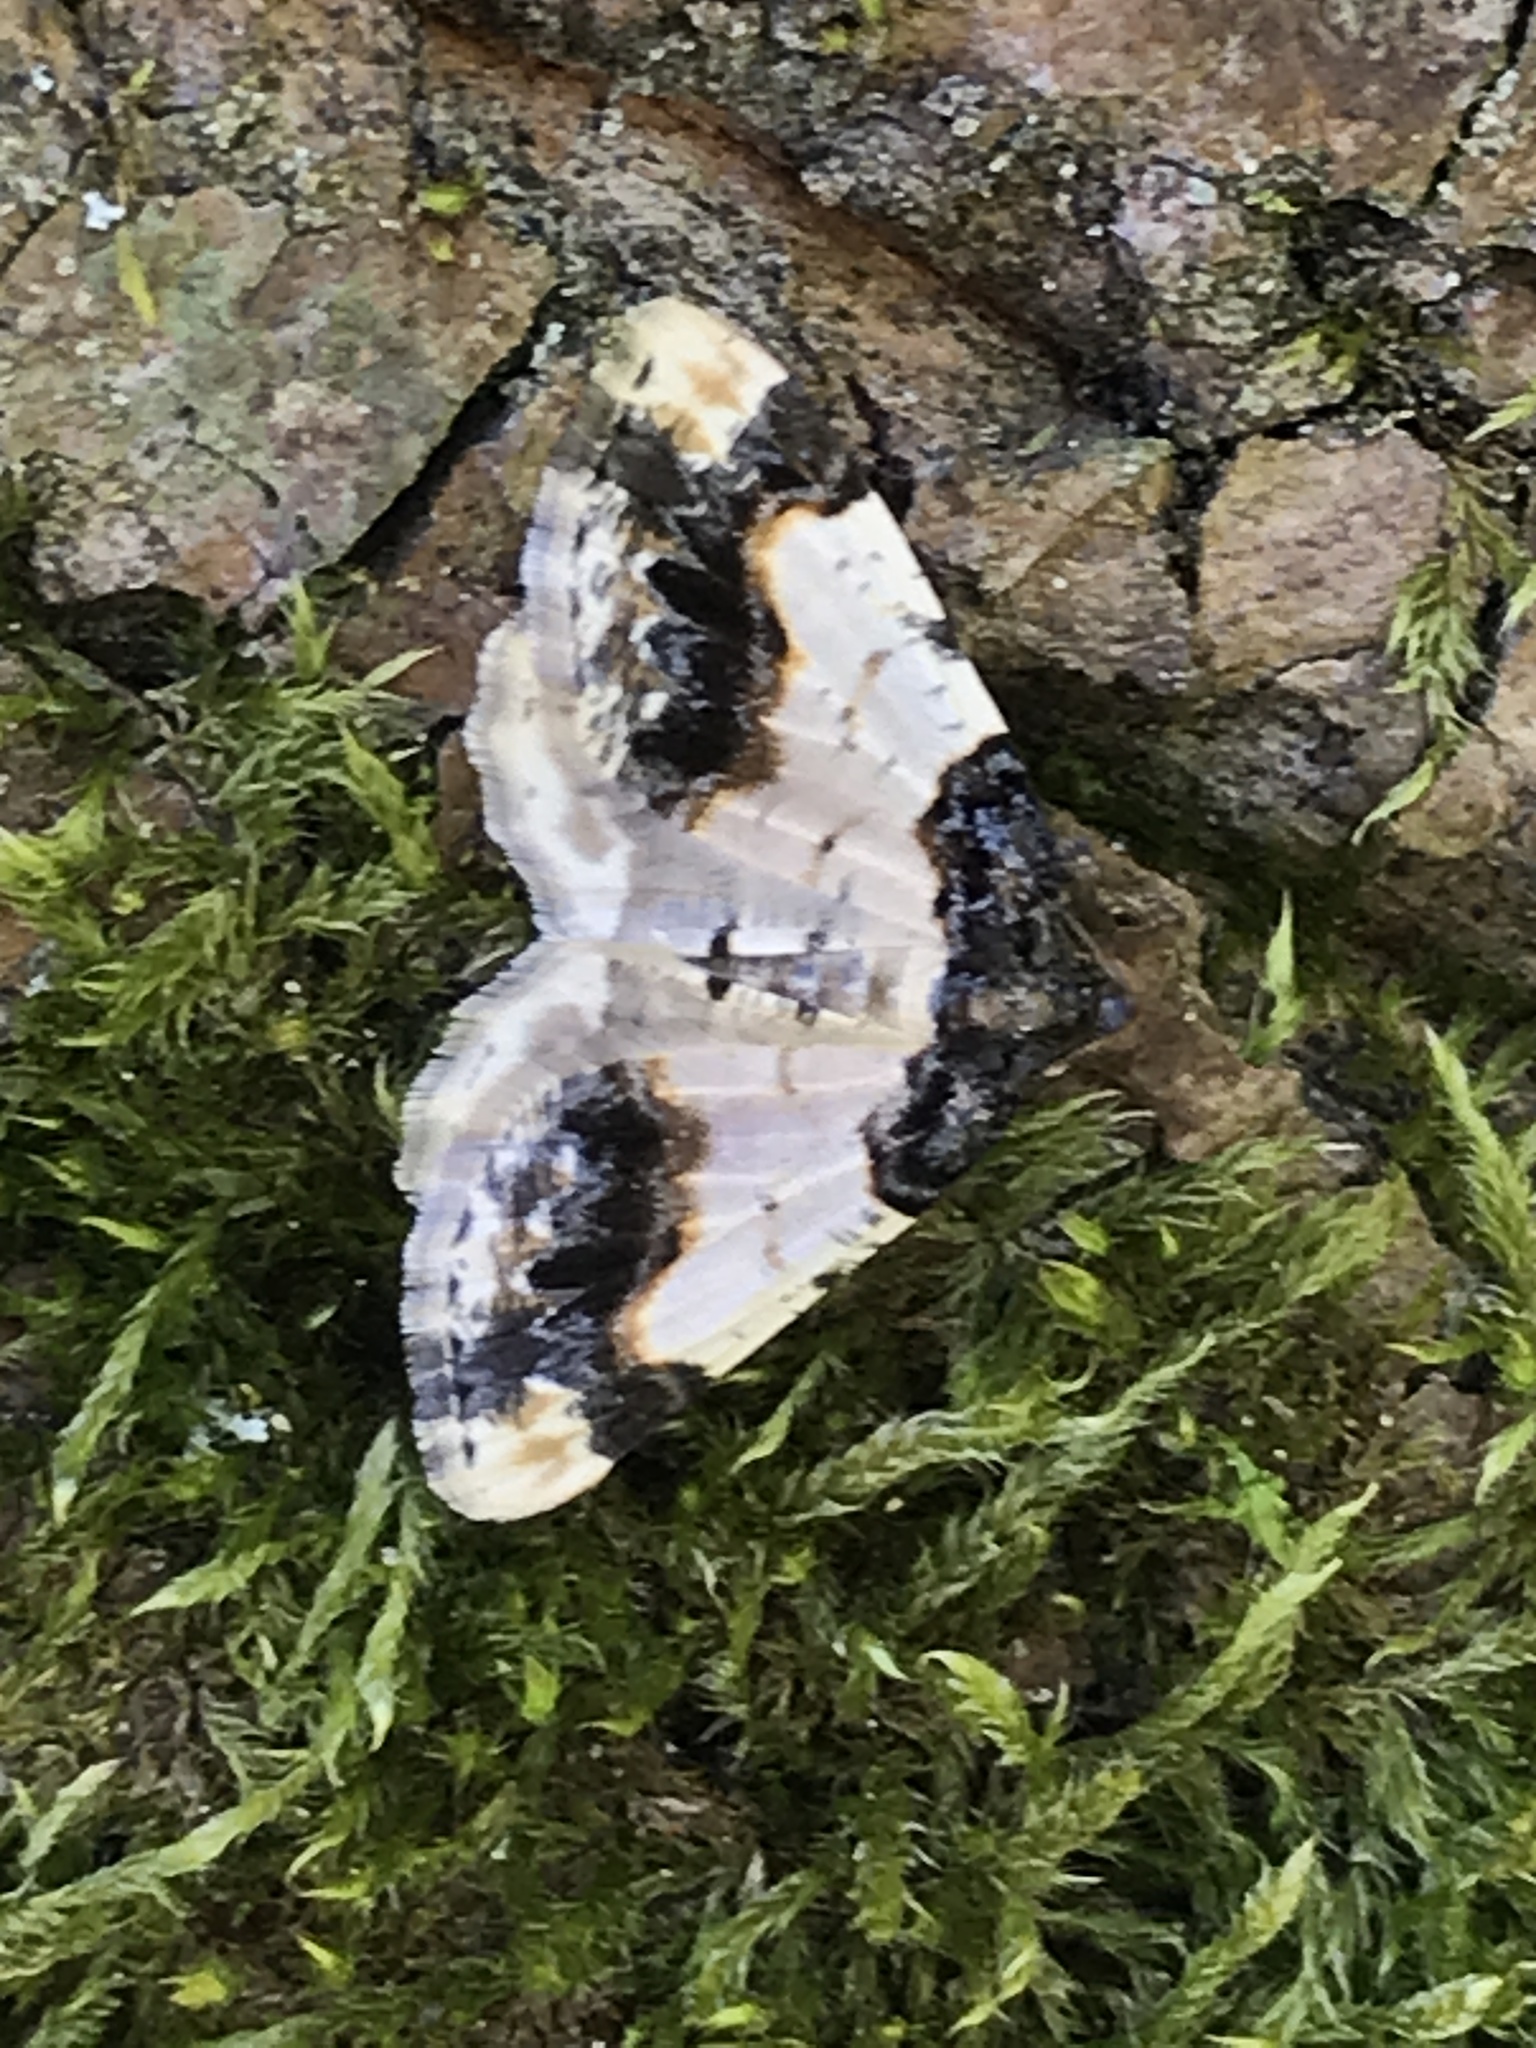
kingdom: Animalia
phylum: Arthropoda
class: Insecta
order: Lepidoptera
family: Geometridae
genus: Ligdia
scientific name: Ligdia adustata
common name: Scorched carpet
